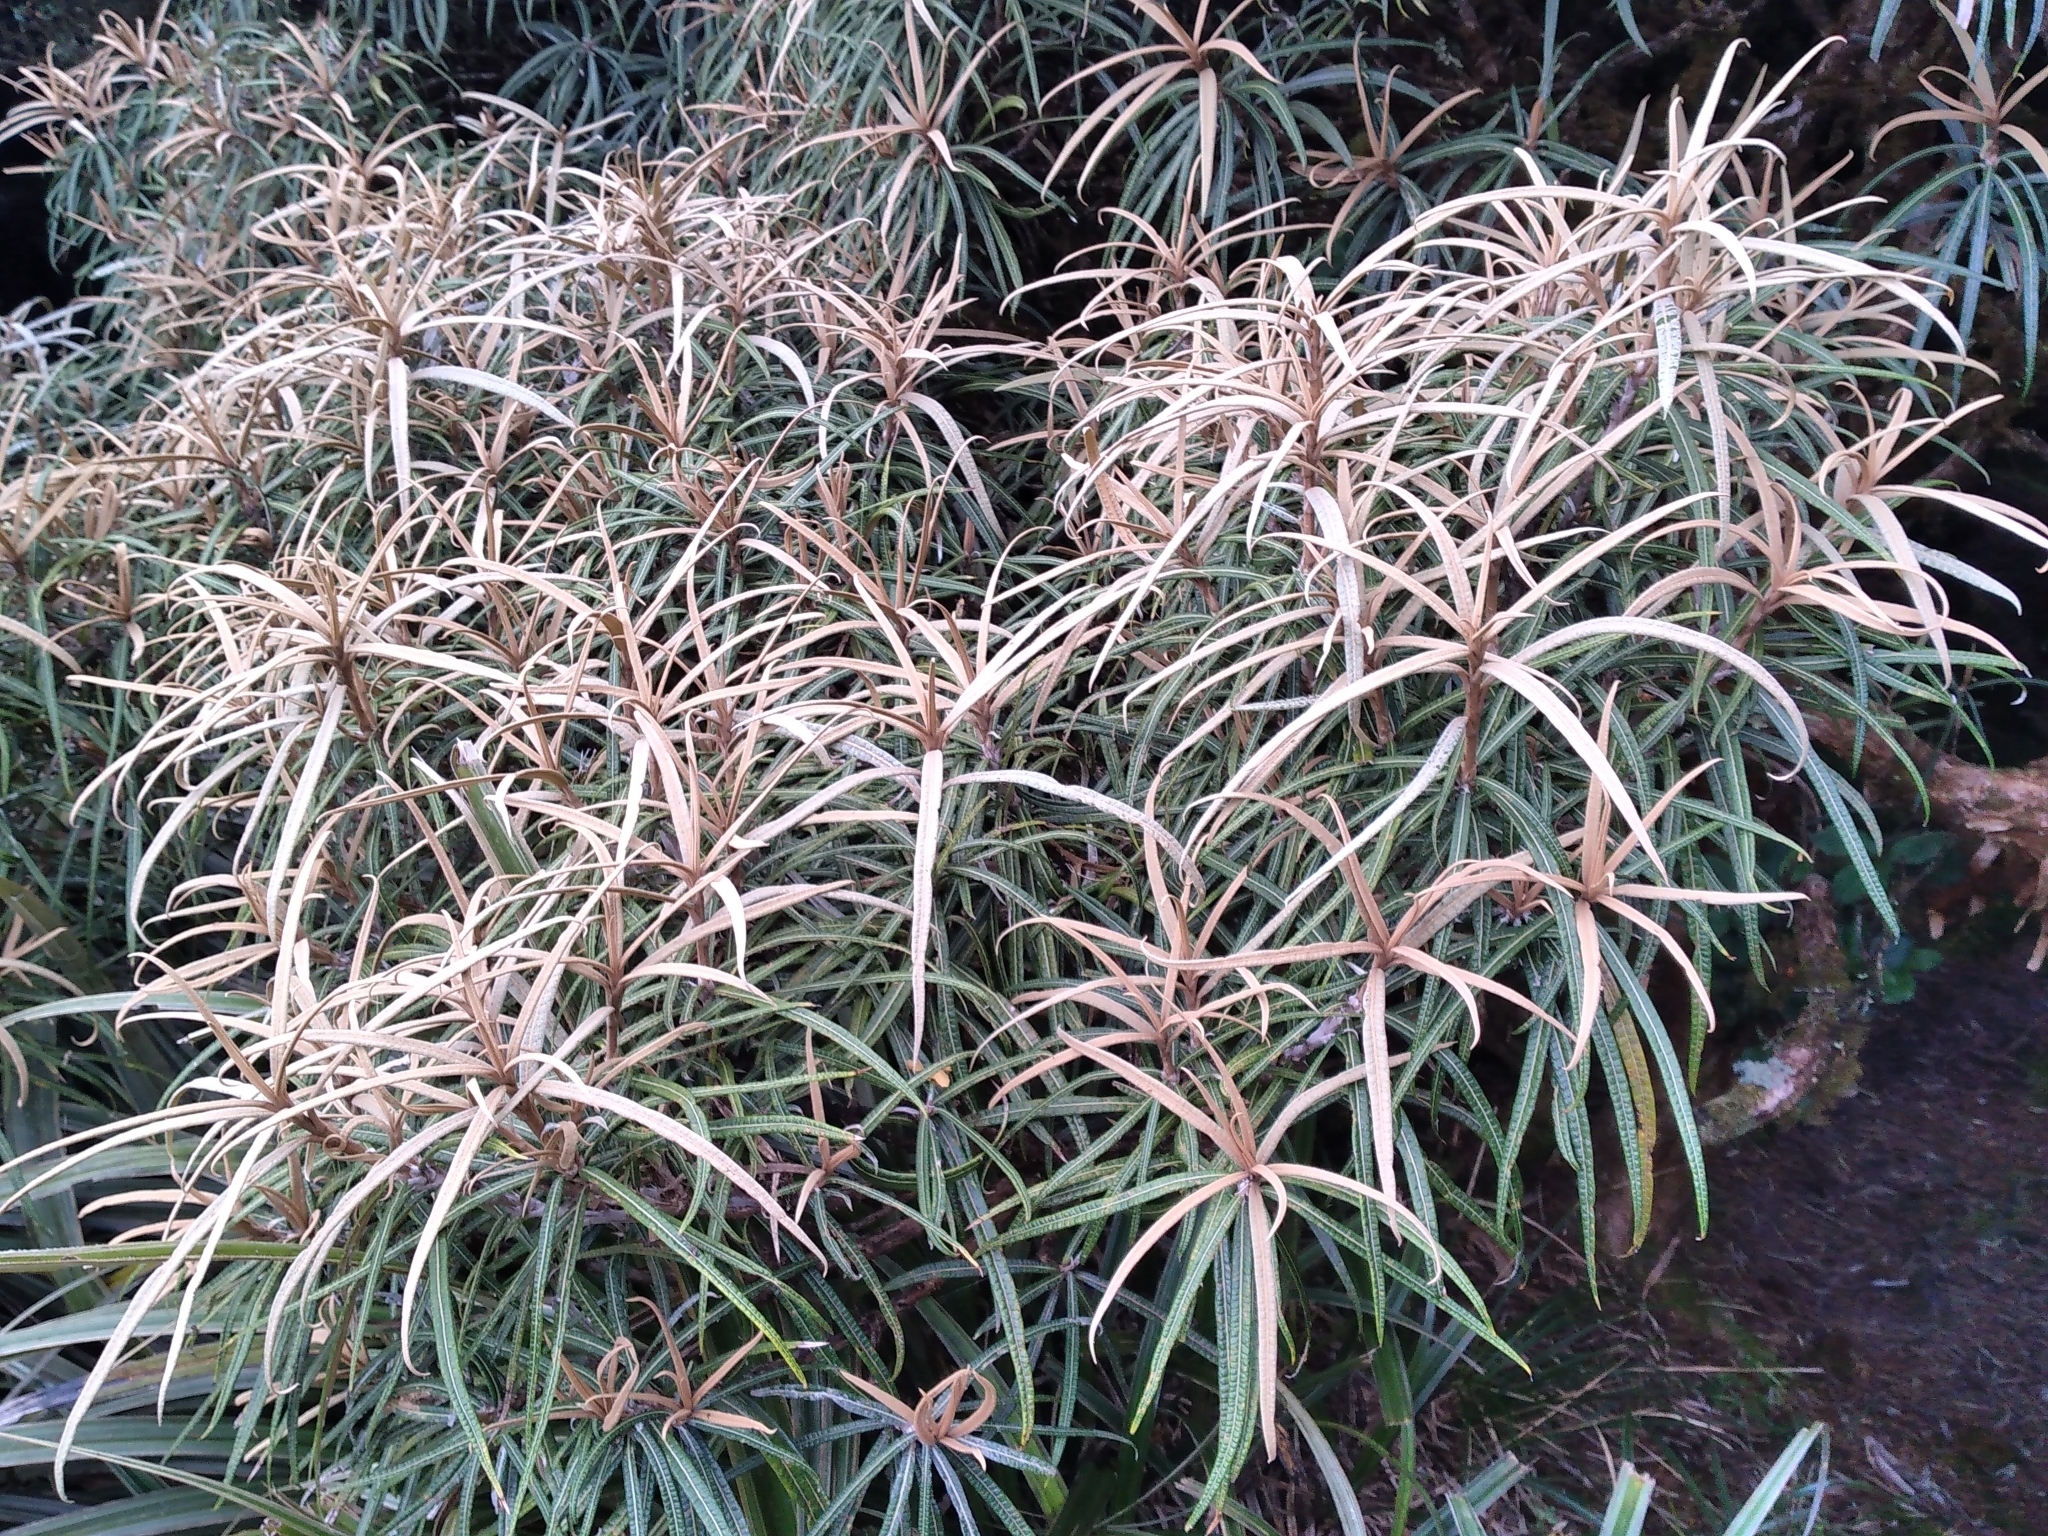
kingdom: Plantae
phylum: Tracheophyta
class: Magnoliopsida
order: Asterales
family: Asteraceae
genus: Olearia
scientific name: Olearia lacunosa
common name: Lancewood tree daisy
